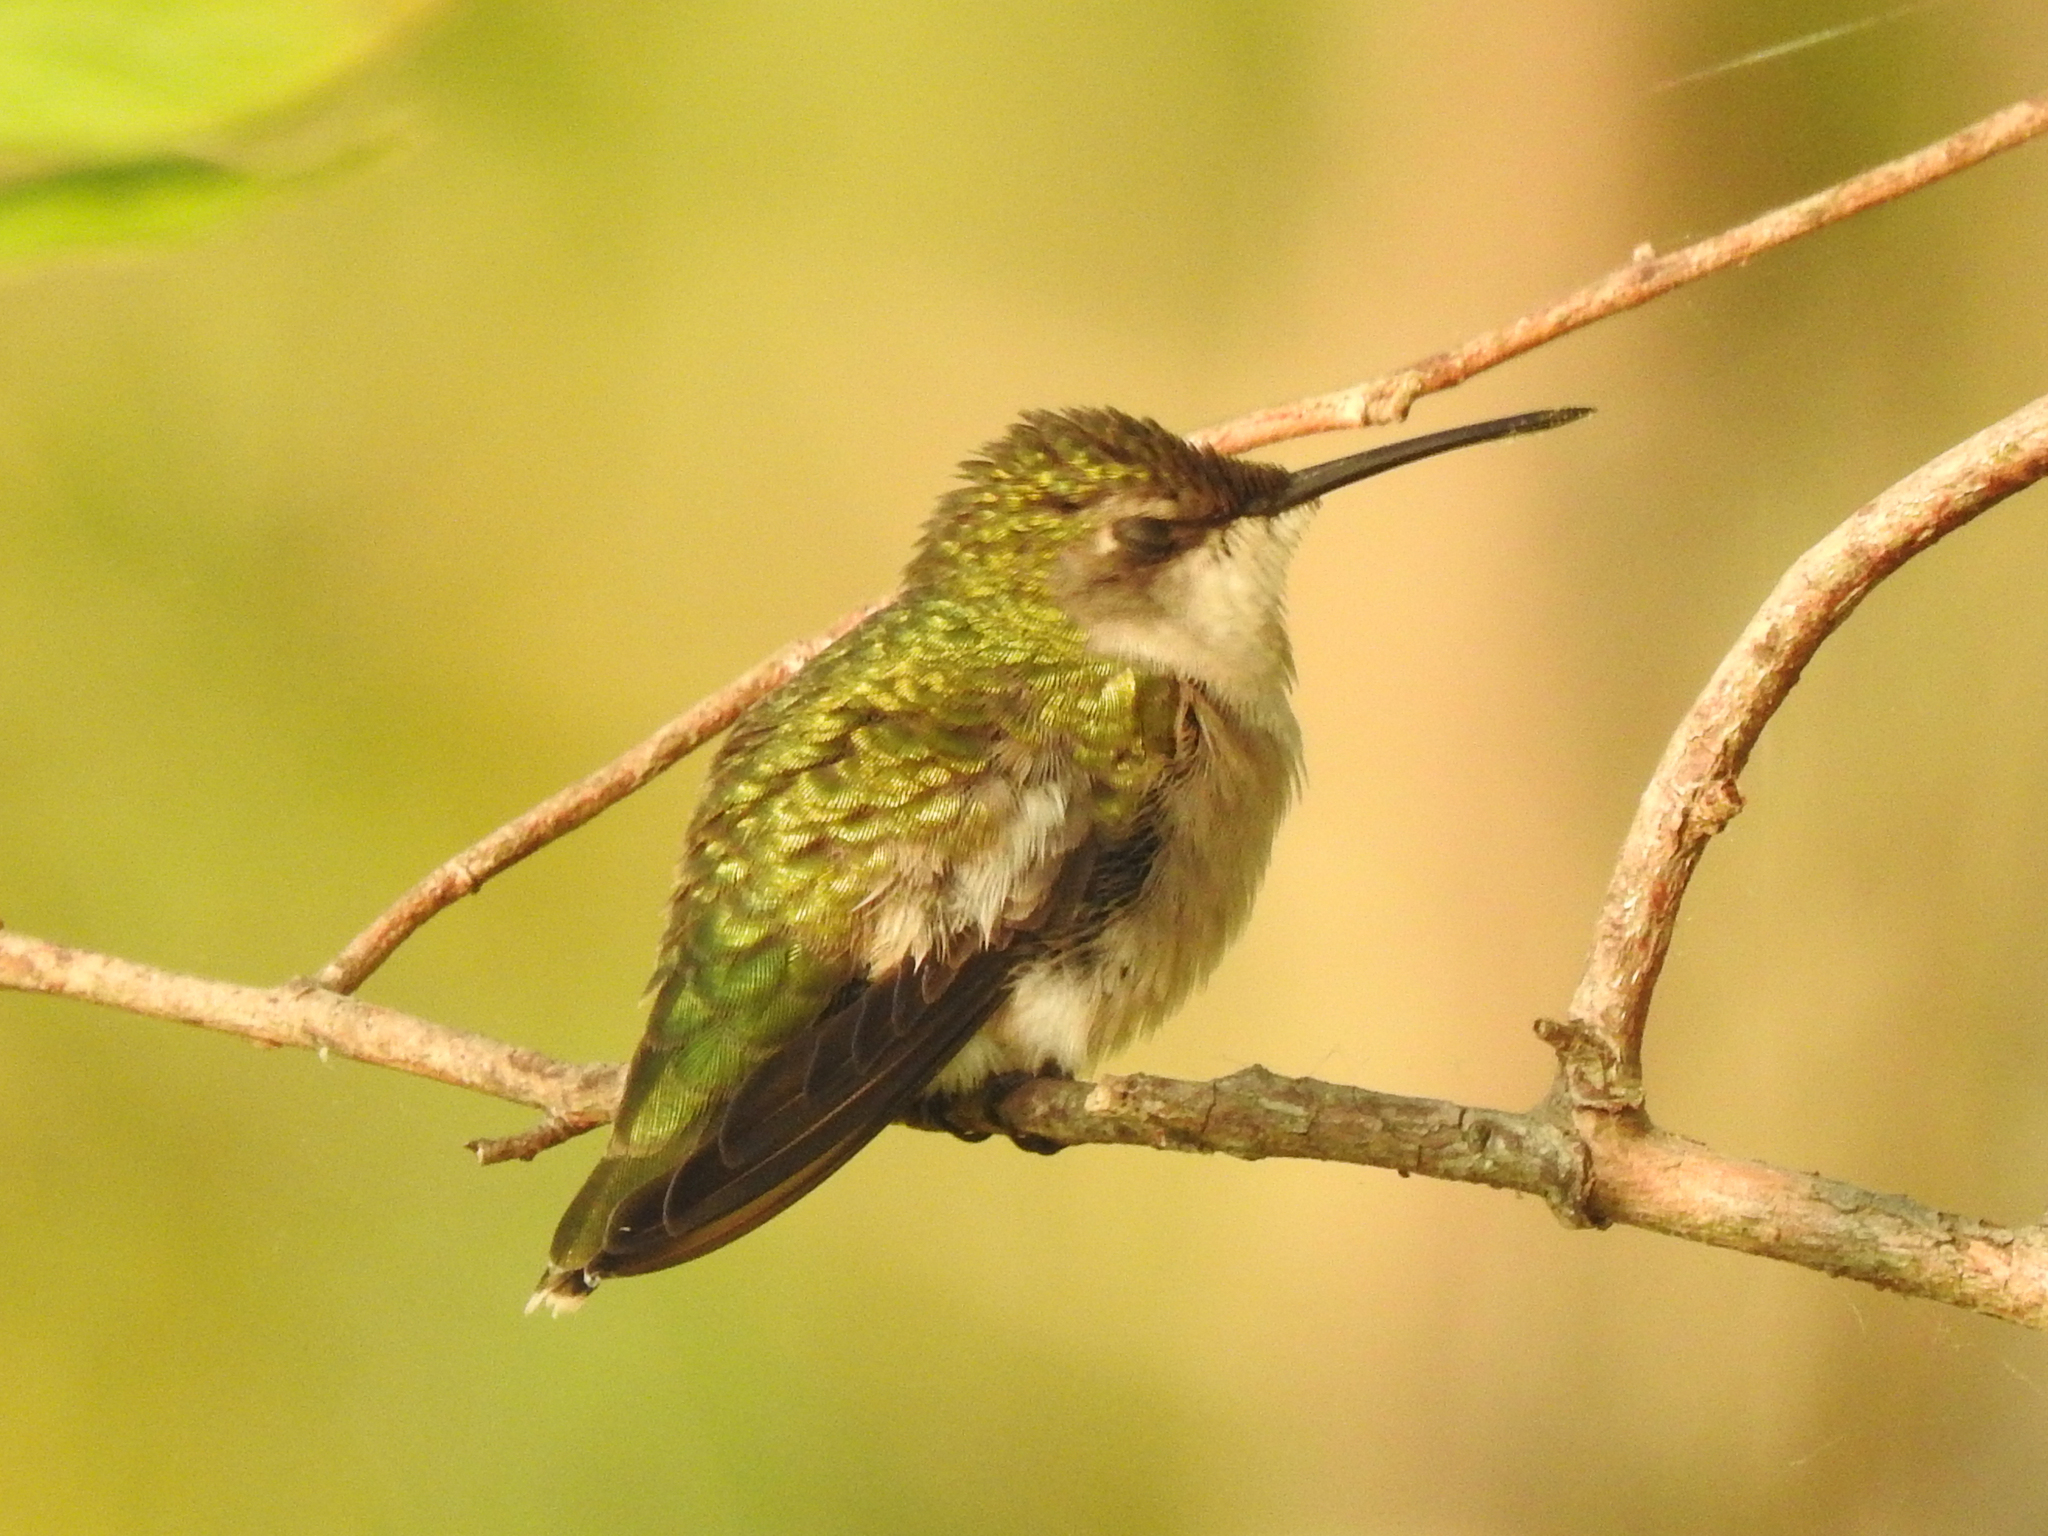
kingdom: Animalia
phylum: Chordata
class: Aves
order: Apodiformes
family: Trochilidae
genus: Archilochus
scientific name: Archilochus colubris
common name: Ruby-throated hummingbird
